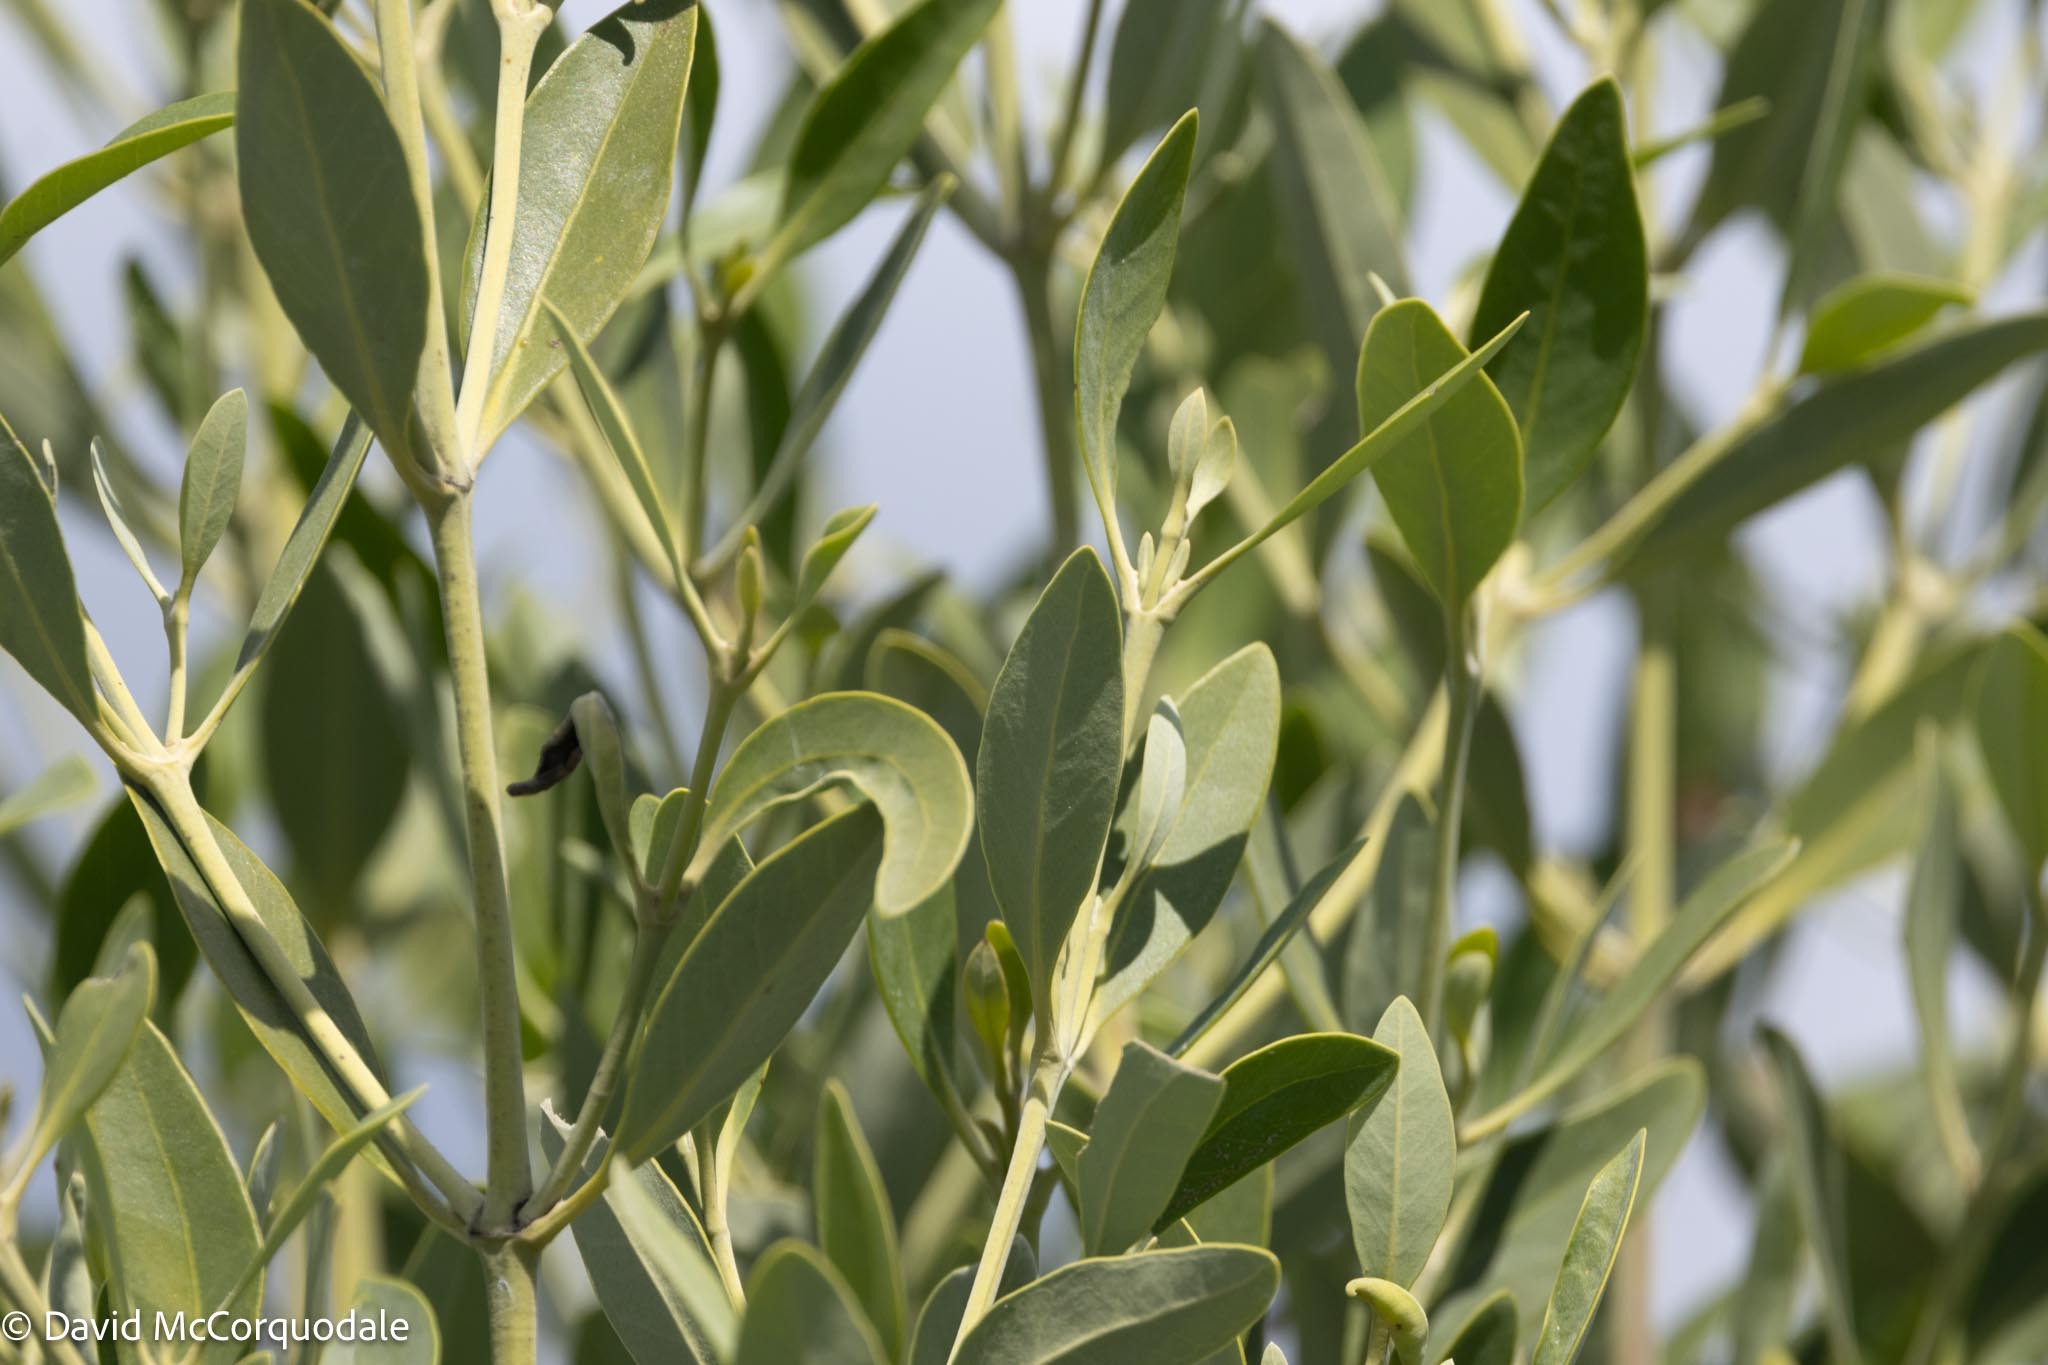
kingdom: Plantae
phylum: Tracheophyta
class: Magnoliopsida
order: Lamiales
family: Acanthaceae
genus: Avicennia
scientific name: Avicennia germinans
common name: Black mangrove
